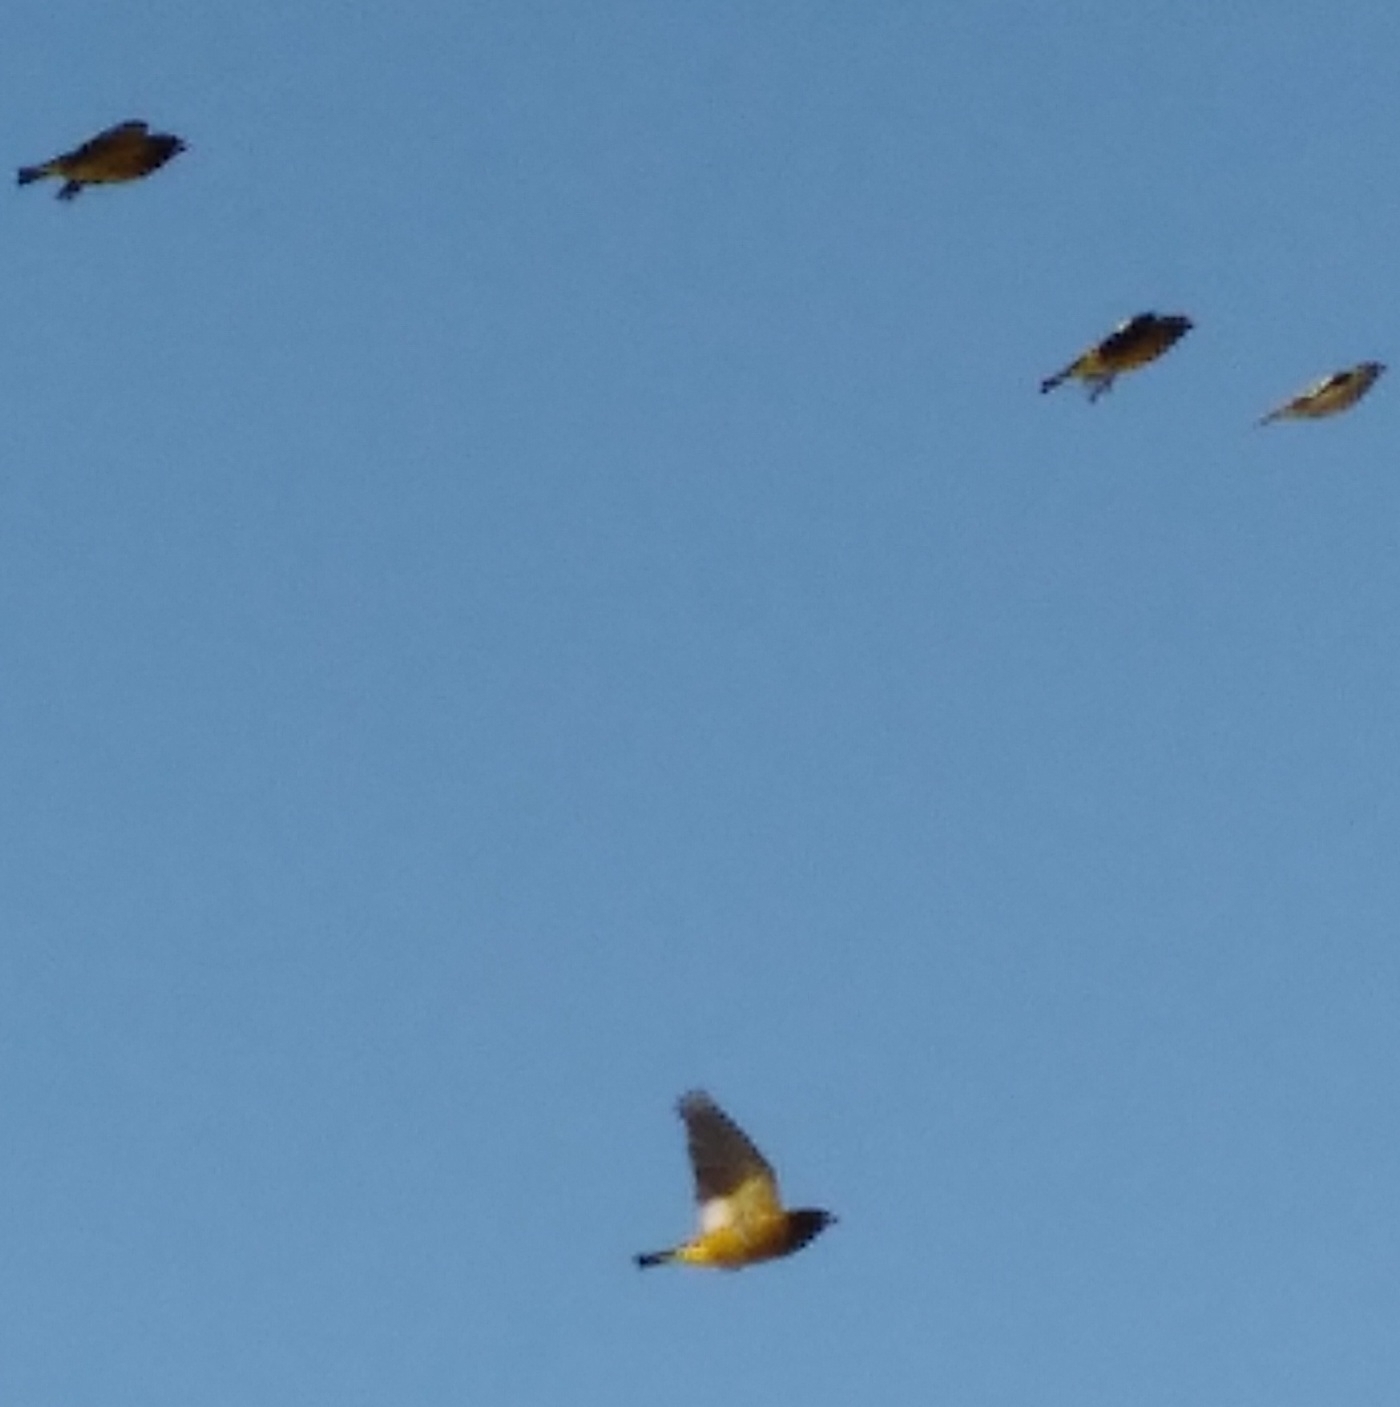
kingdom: Animalia
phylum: Chordata
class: Aves
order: Passeriformes
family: Fringillidae
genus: Hesperiphona
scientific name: Hesperiphona vespertina
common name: Evening grosbeak
